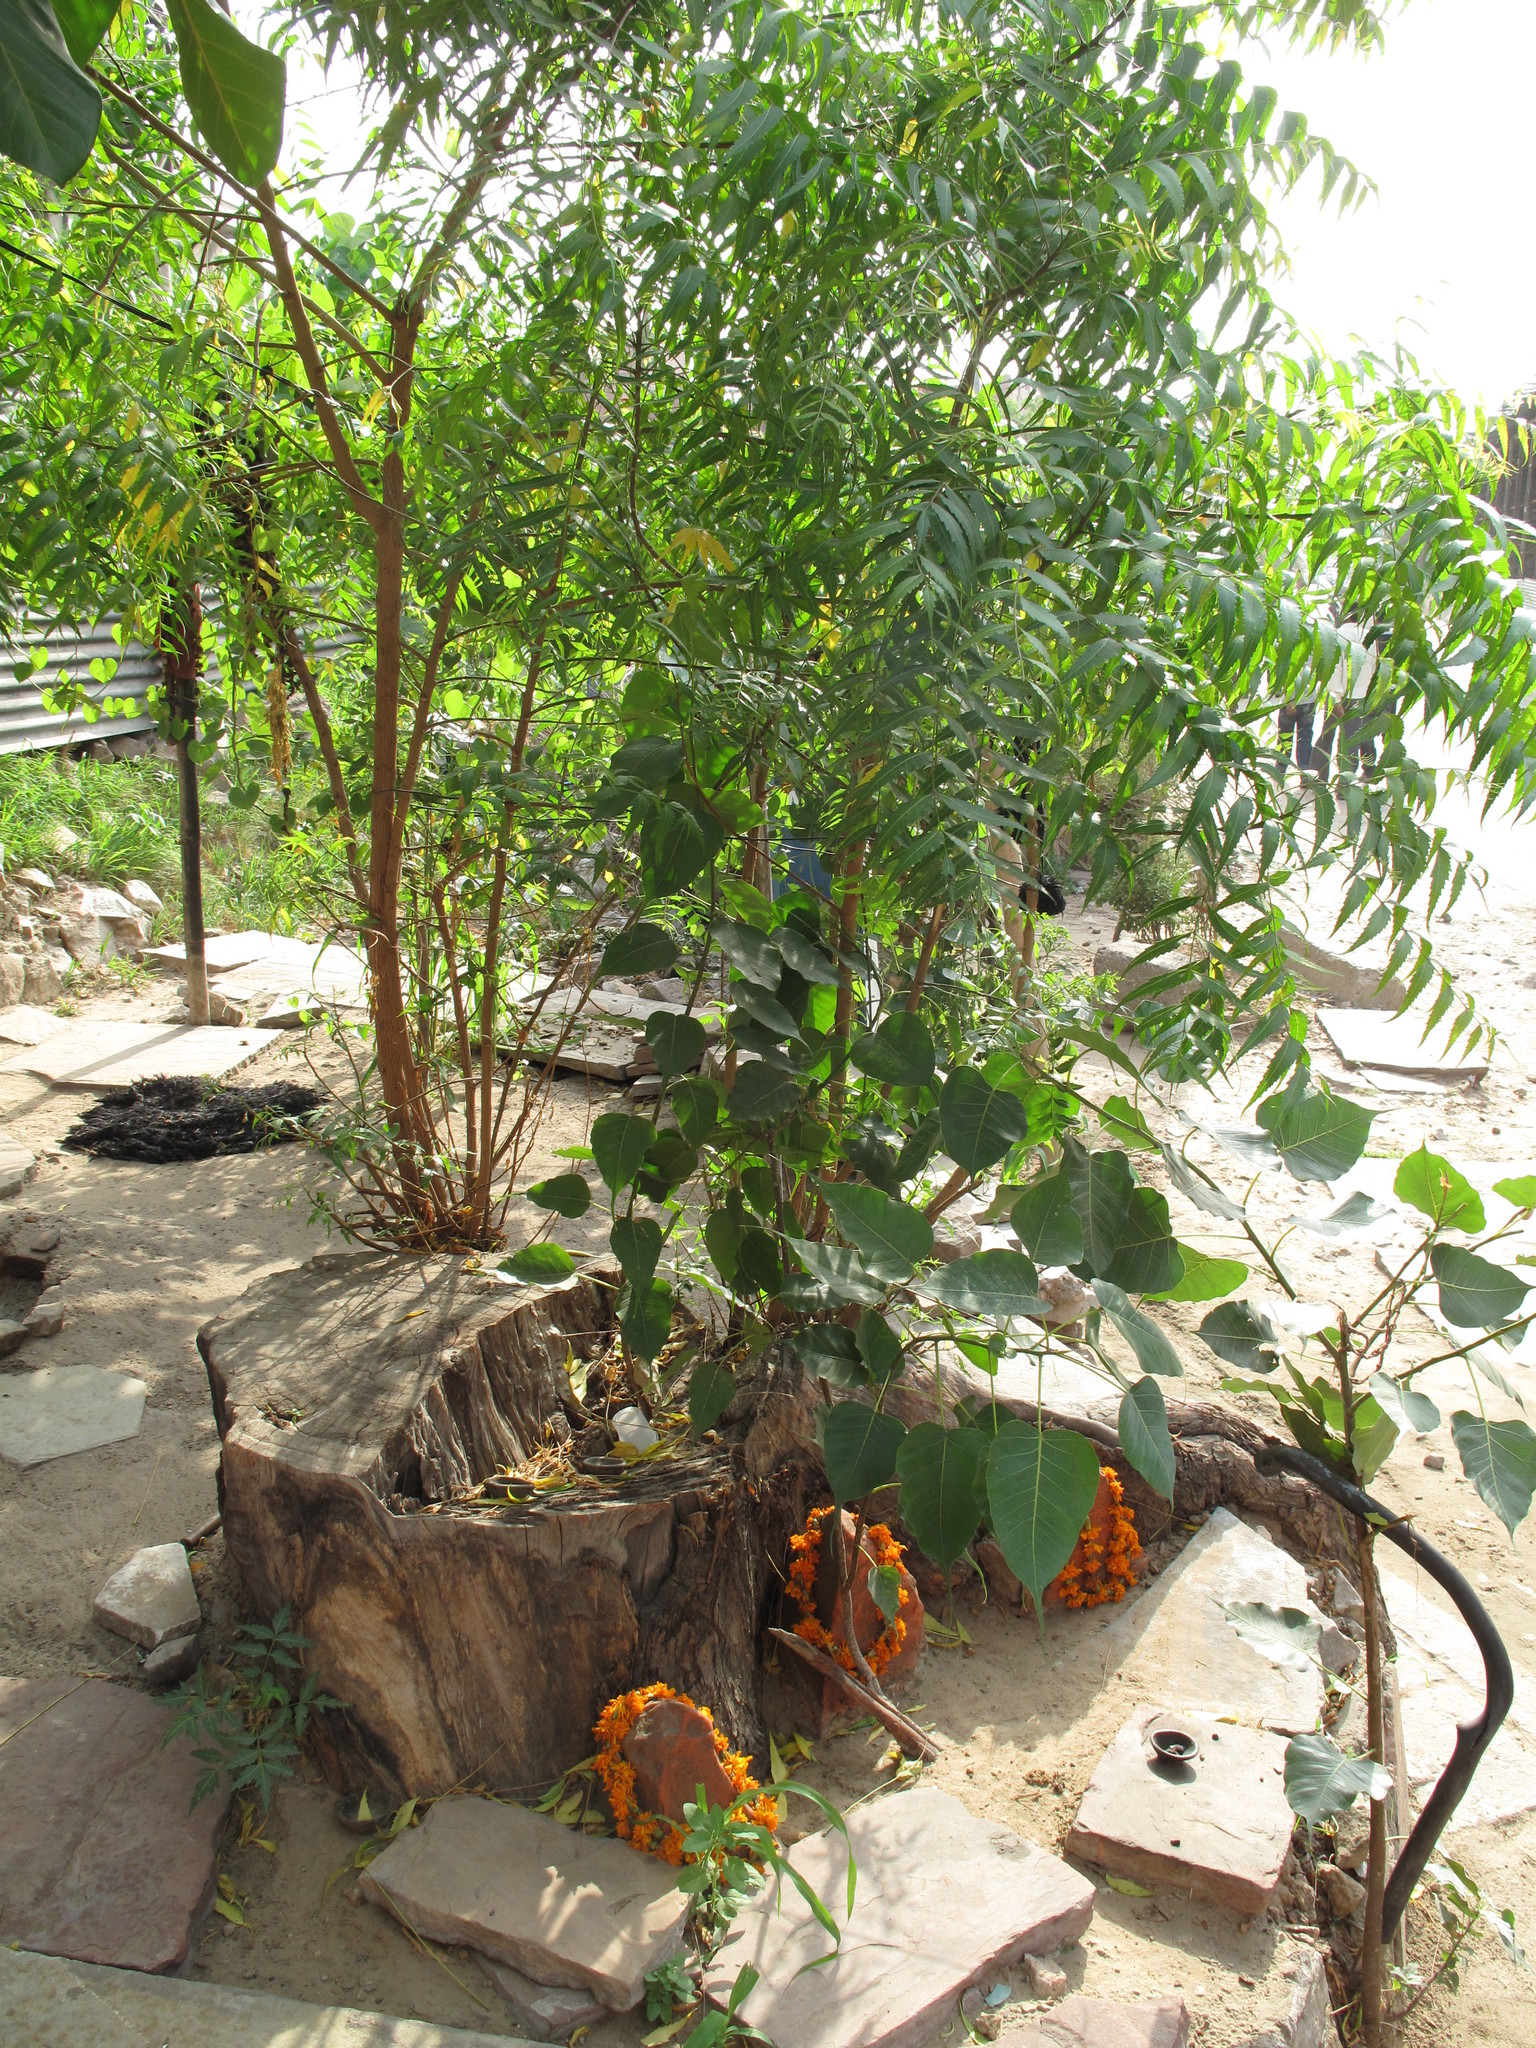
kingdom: Plantae
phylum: Tracheophyta
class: Magnoliopsida
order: Sapindales
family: Meliaceae
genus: Azadirachta
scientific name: Azadirachta indica
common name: Neem
